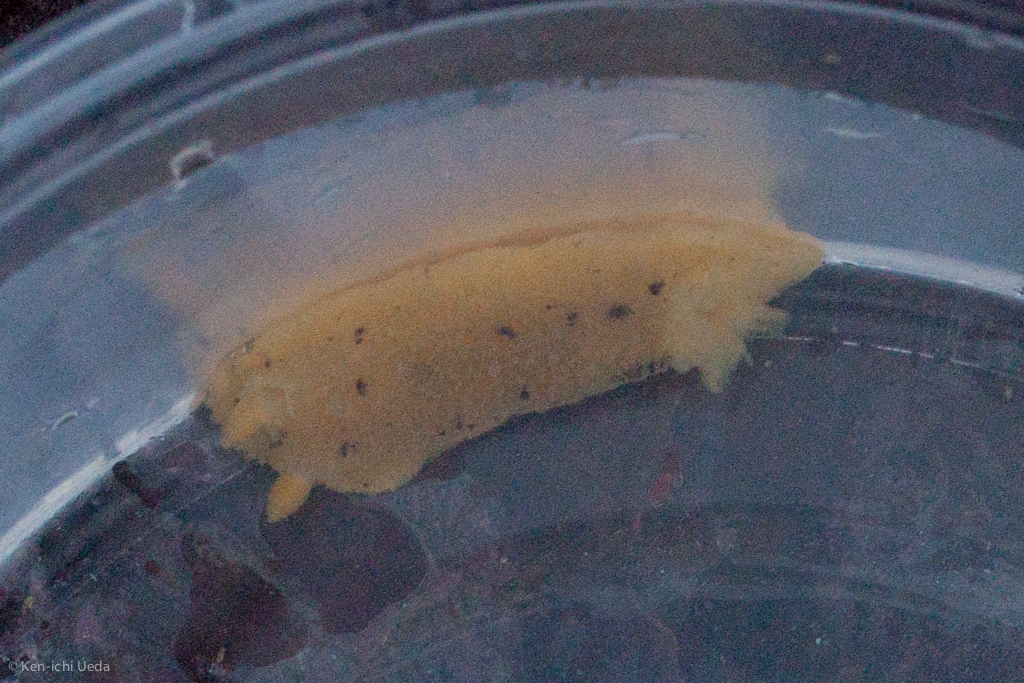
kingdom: Animalia
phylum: Mollusca
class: Gastropoda
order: Nudibranchia
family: Dorididae
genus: Doris
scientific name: Doris montereyensis
